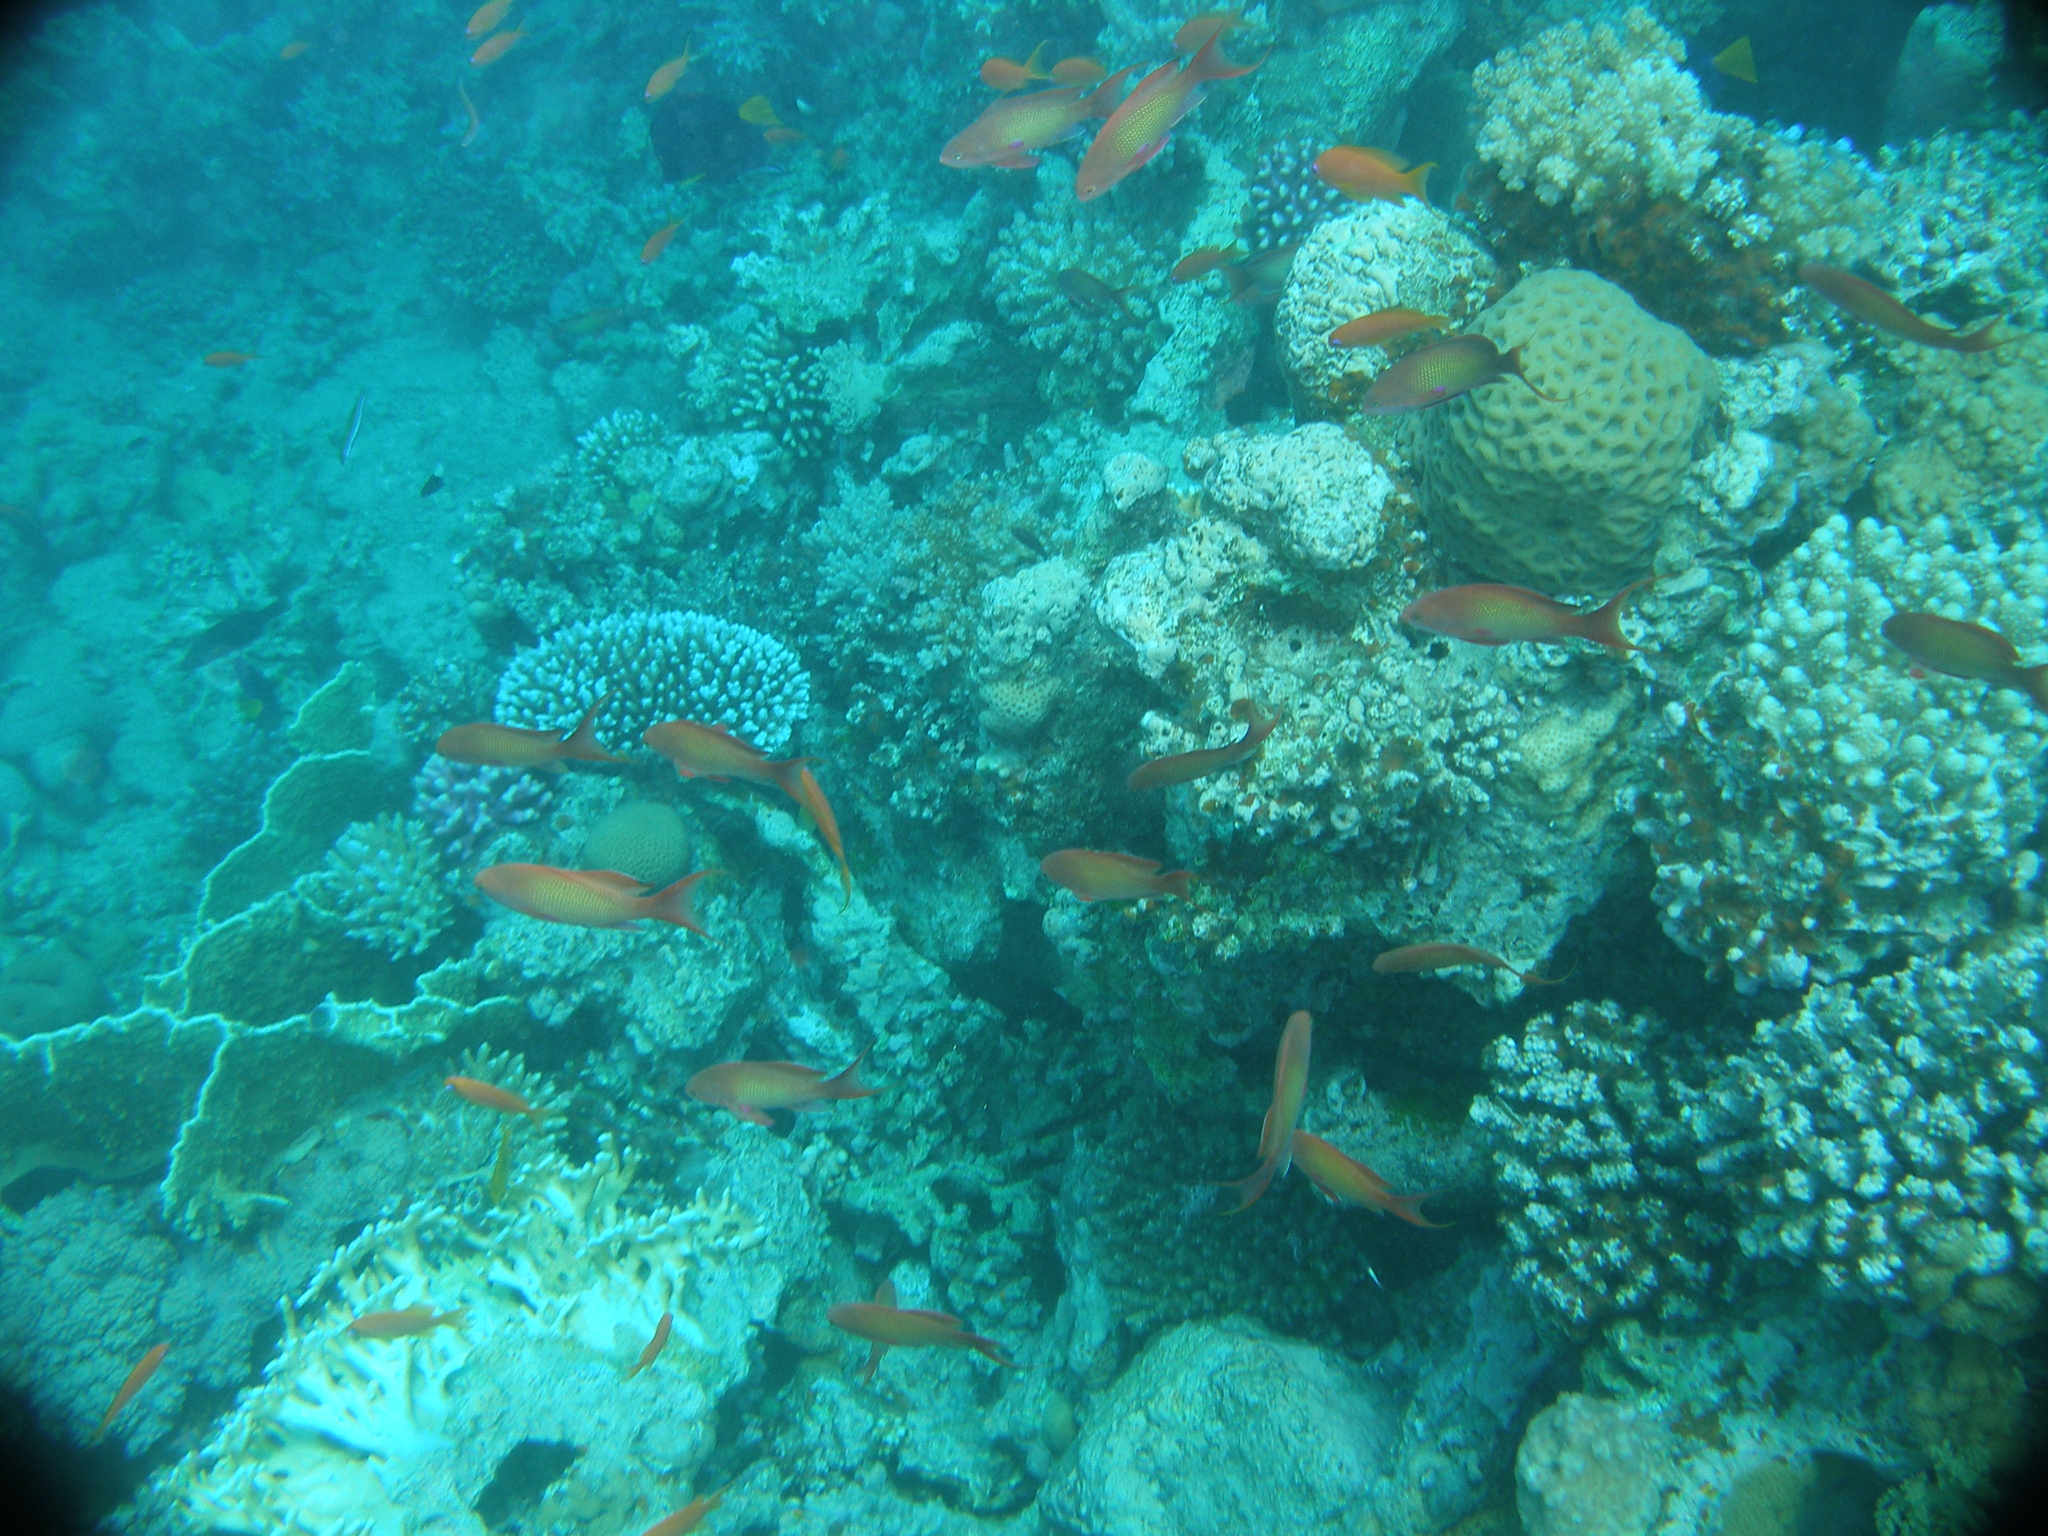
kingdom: Animalia
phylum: Chordata
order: Perciformes
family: Serranidae
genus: Pseudanthias
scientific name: Pseudanthias squamipinnis
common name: Scalefin anthias
